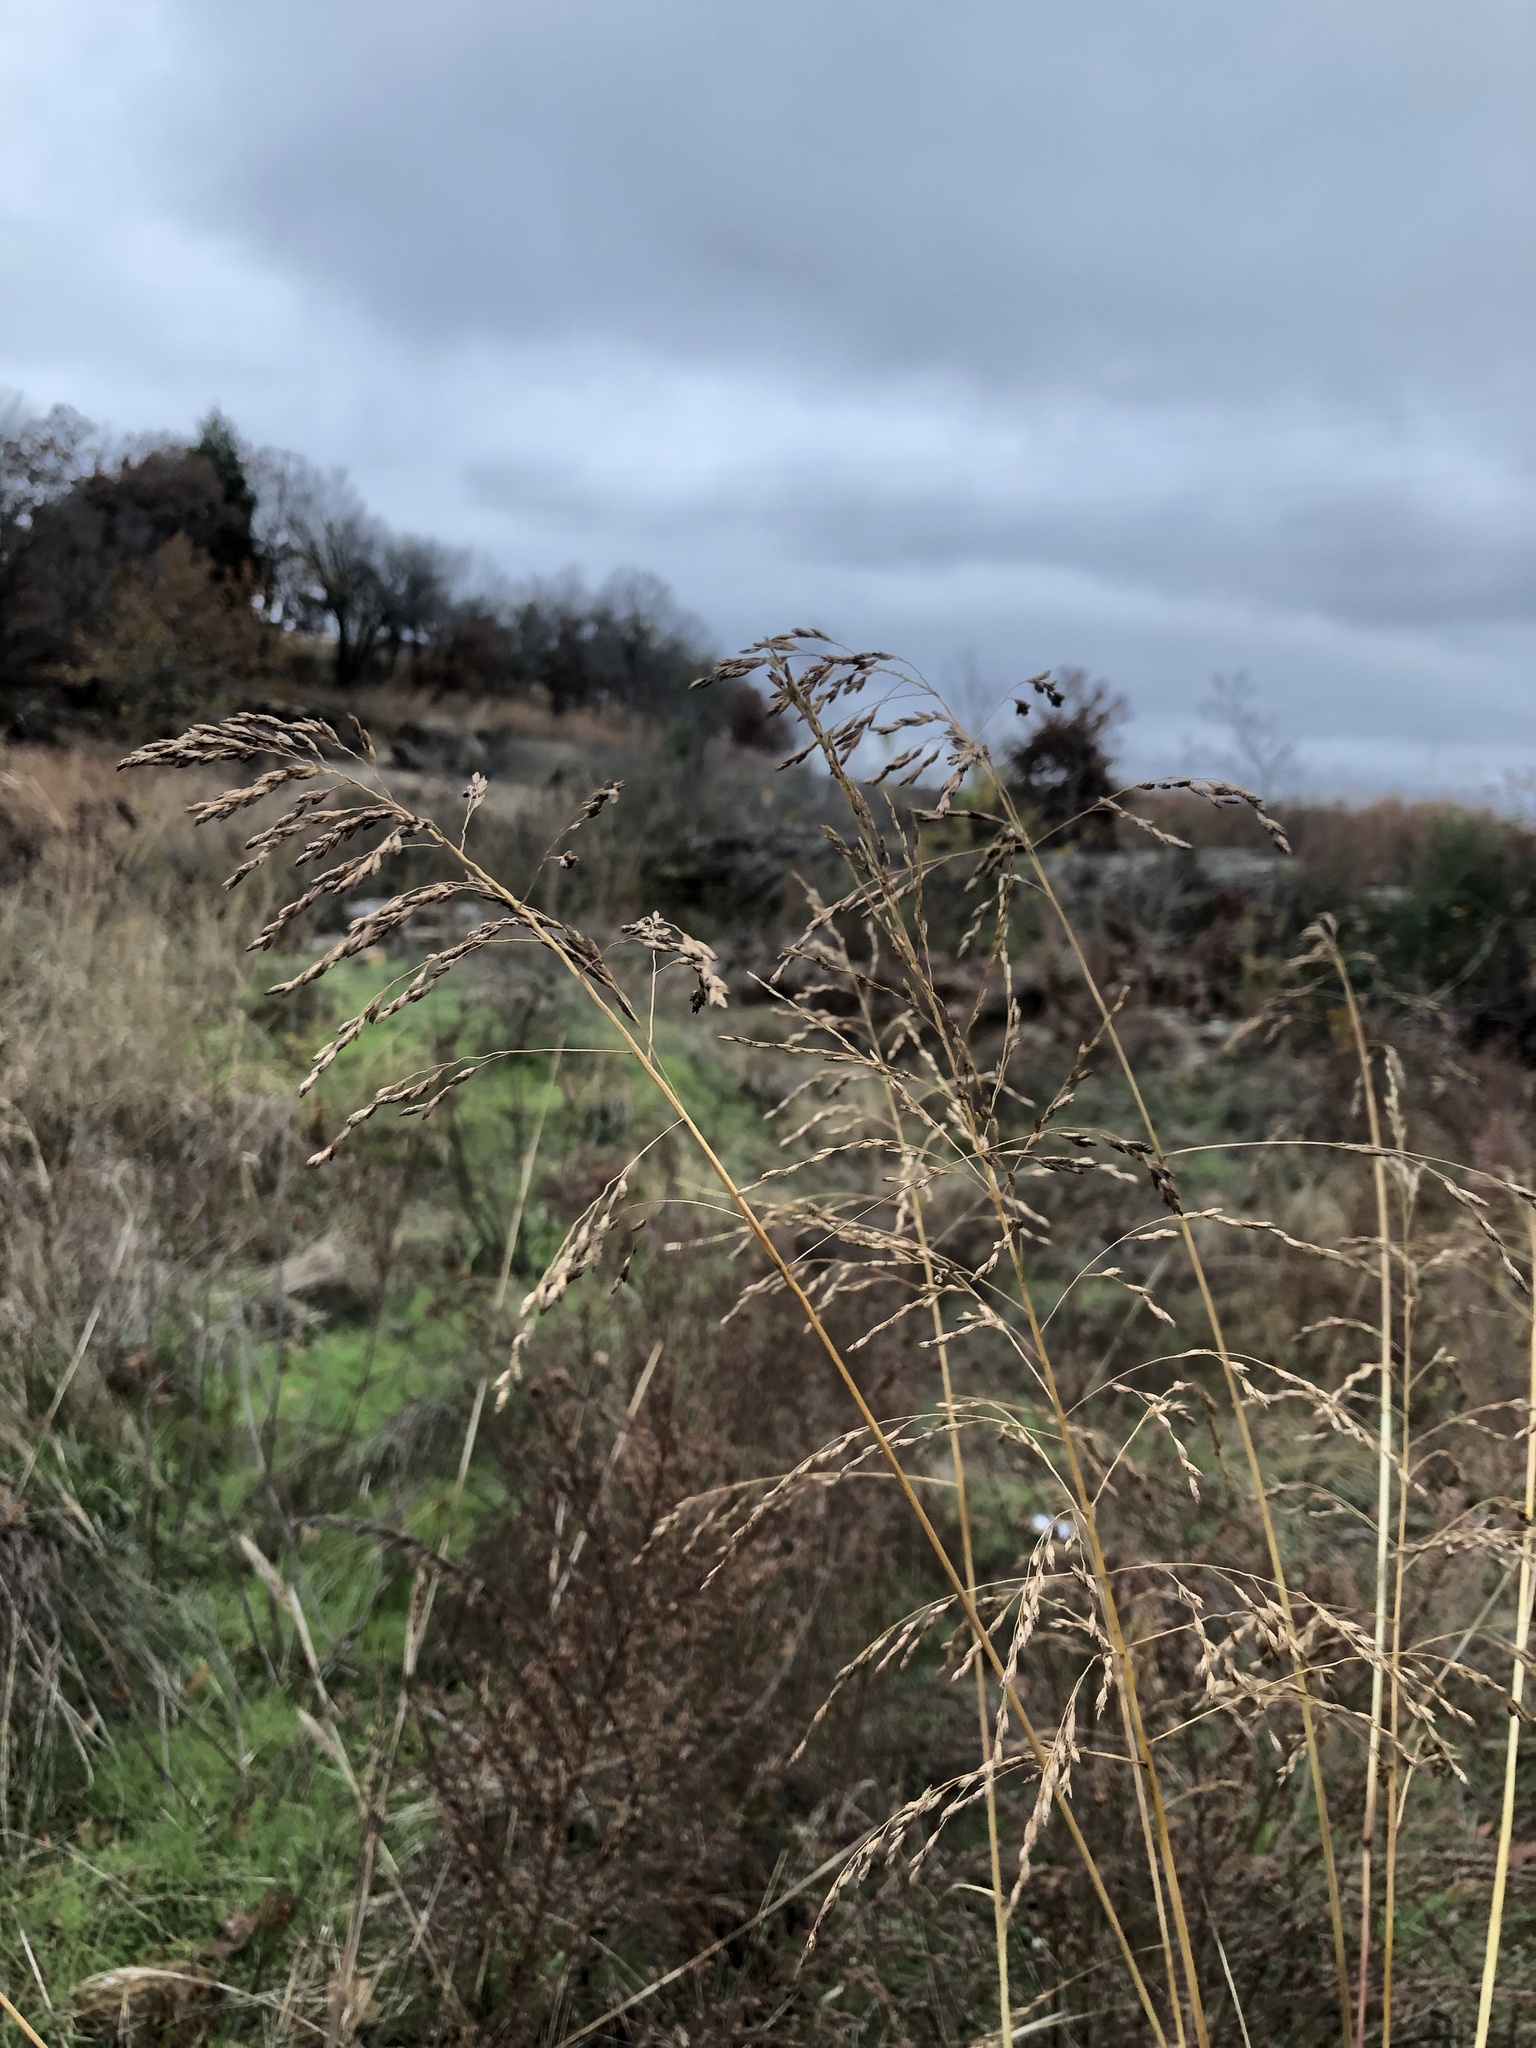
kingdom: Plantae
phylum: Tracheophyta
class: Liliopsida
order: Poales
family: Poaceae
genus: Tridens
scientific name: Tridens flavus
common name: Purpletop
